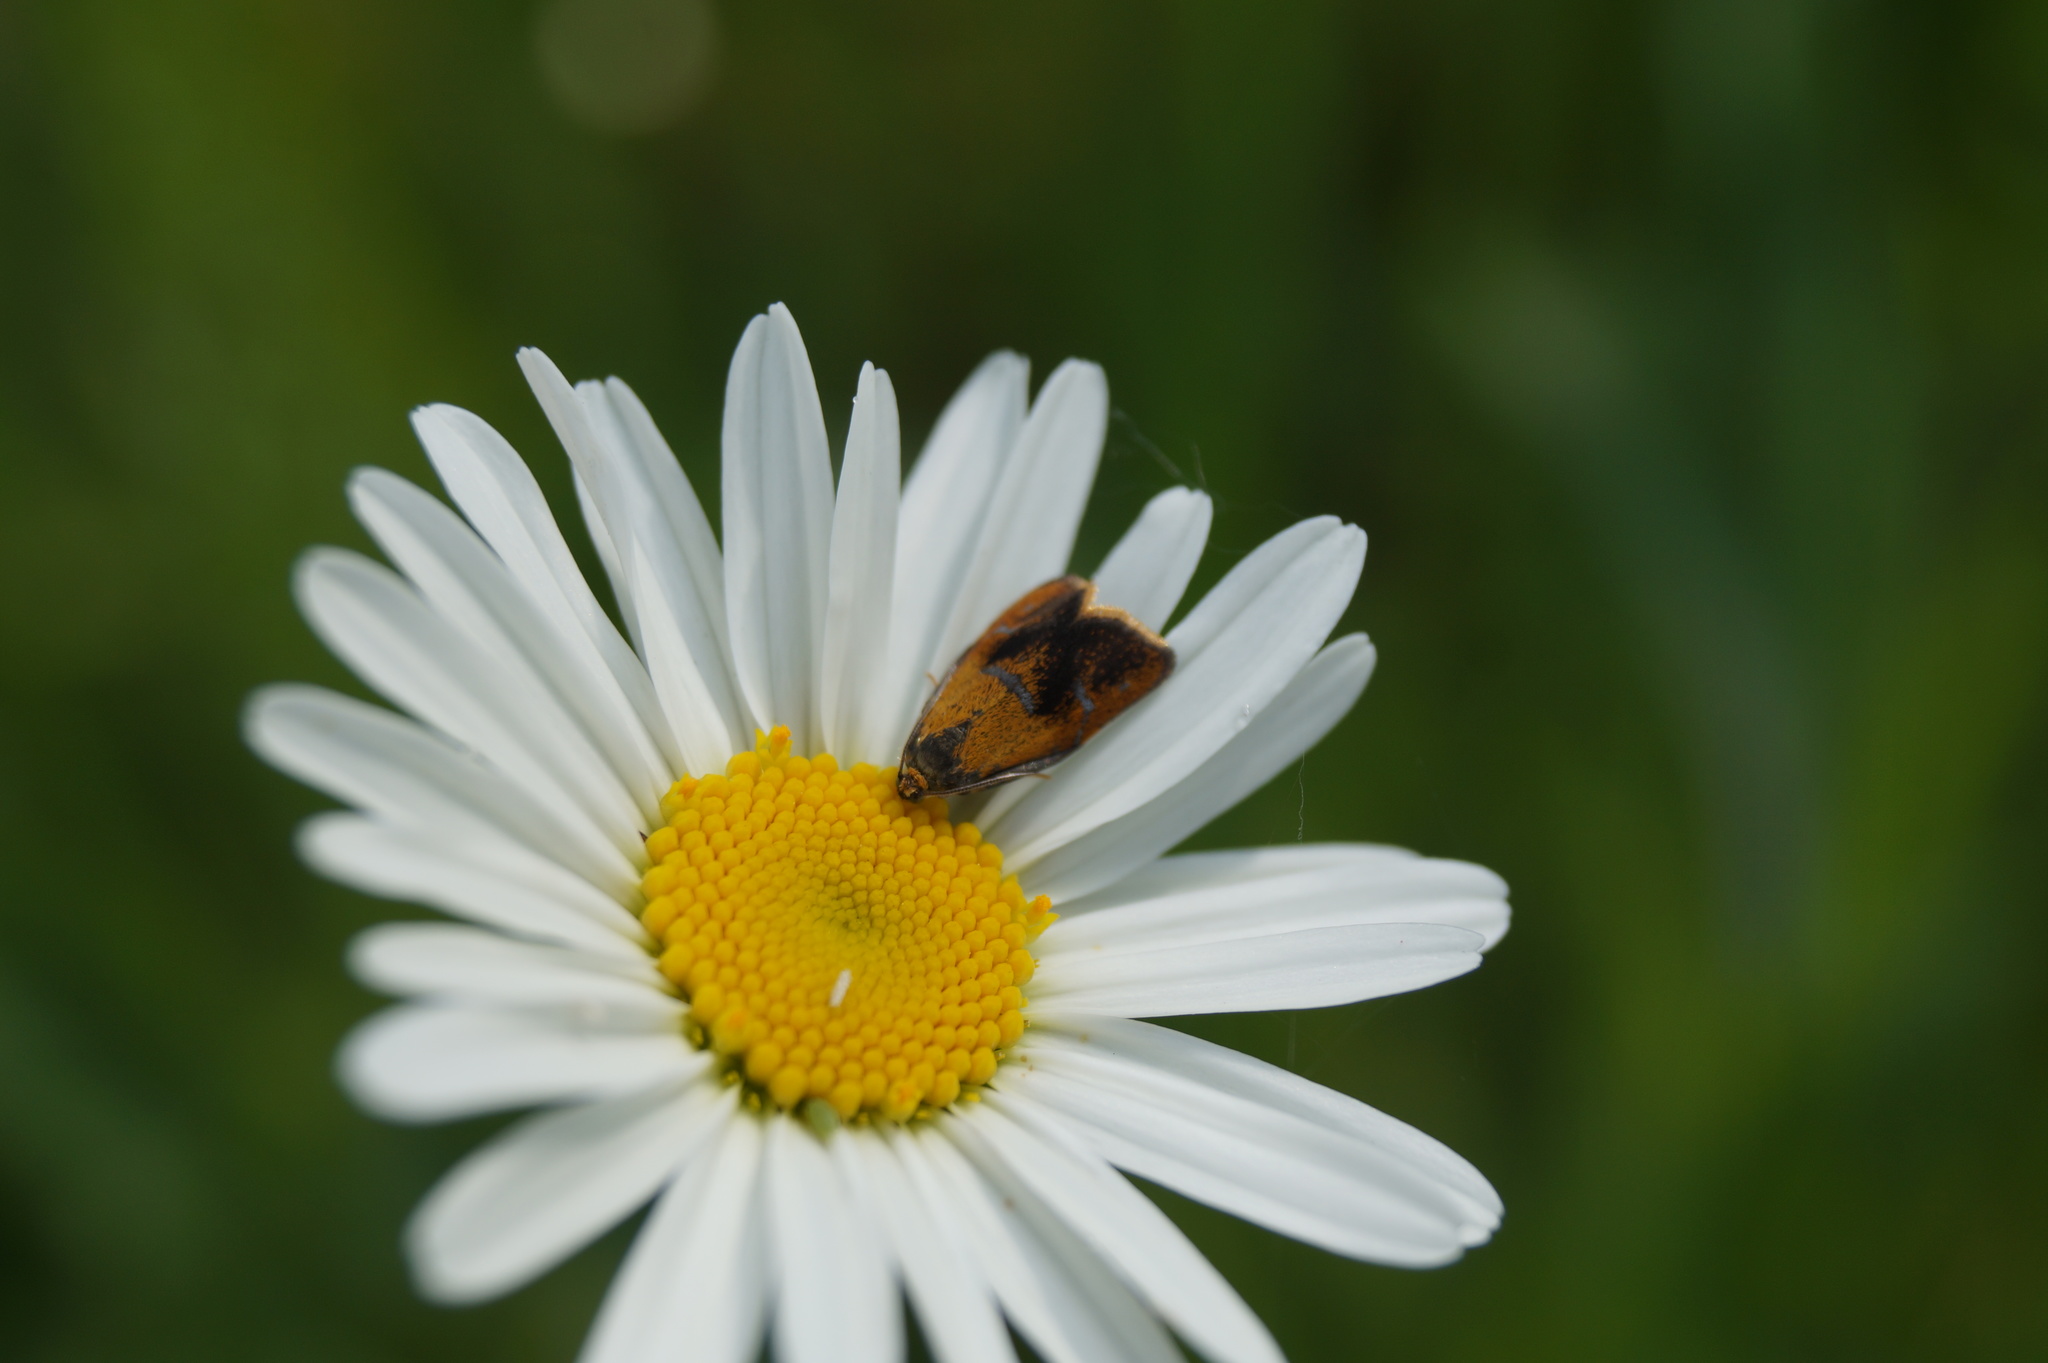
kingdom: Animalia
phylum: Arthropoda
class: Insecta
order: Lepidoptera
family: Tortricidae
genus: Ptycholoma
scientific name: Ptycholoma lecheana
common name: Leches twist moth
